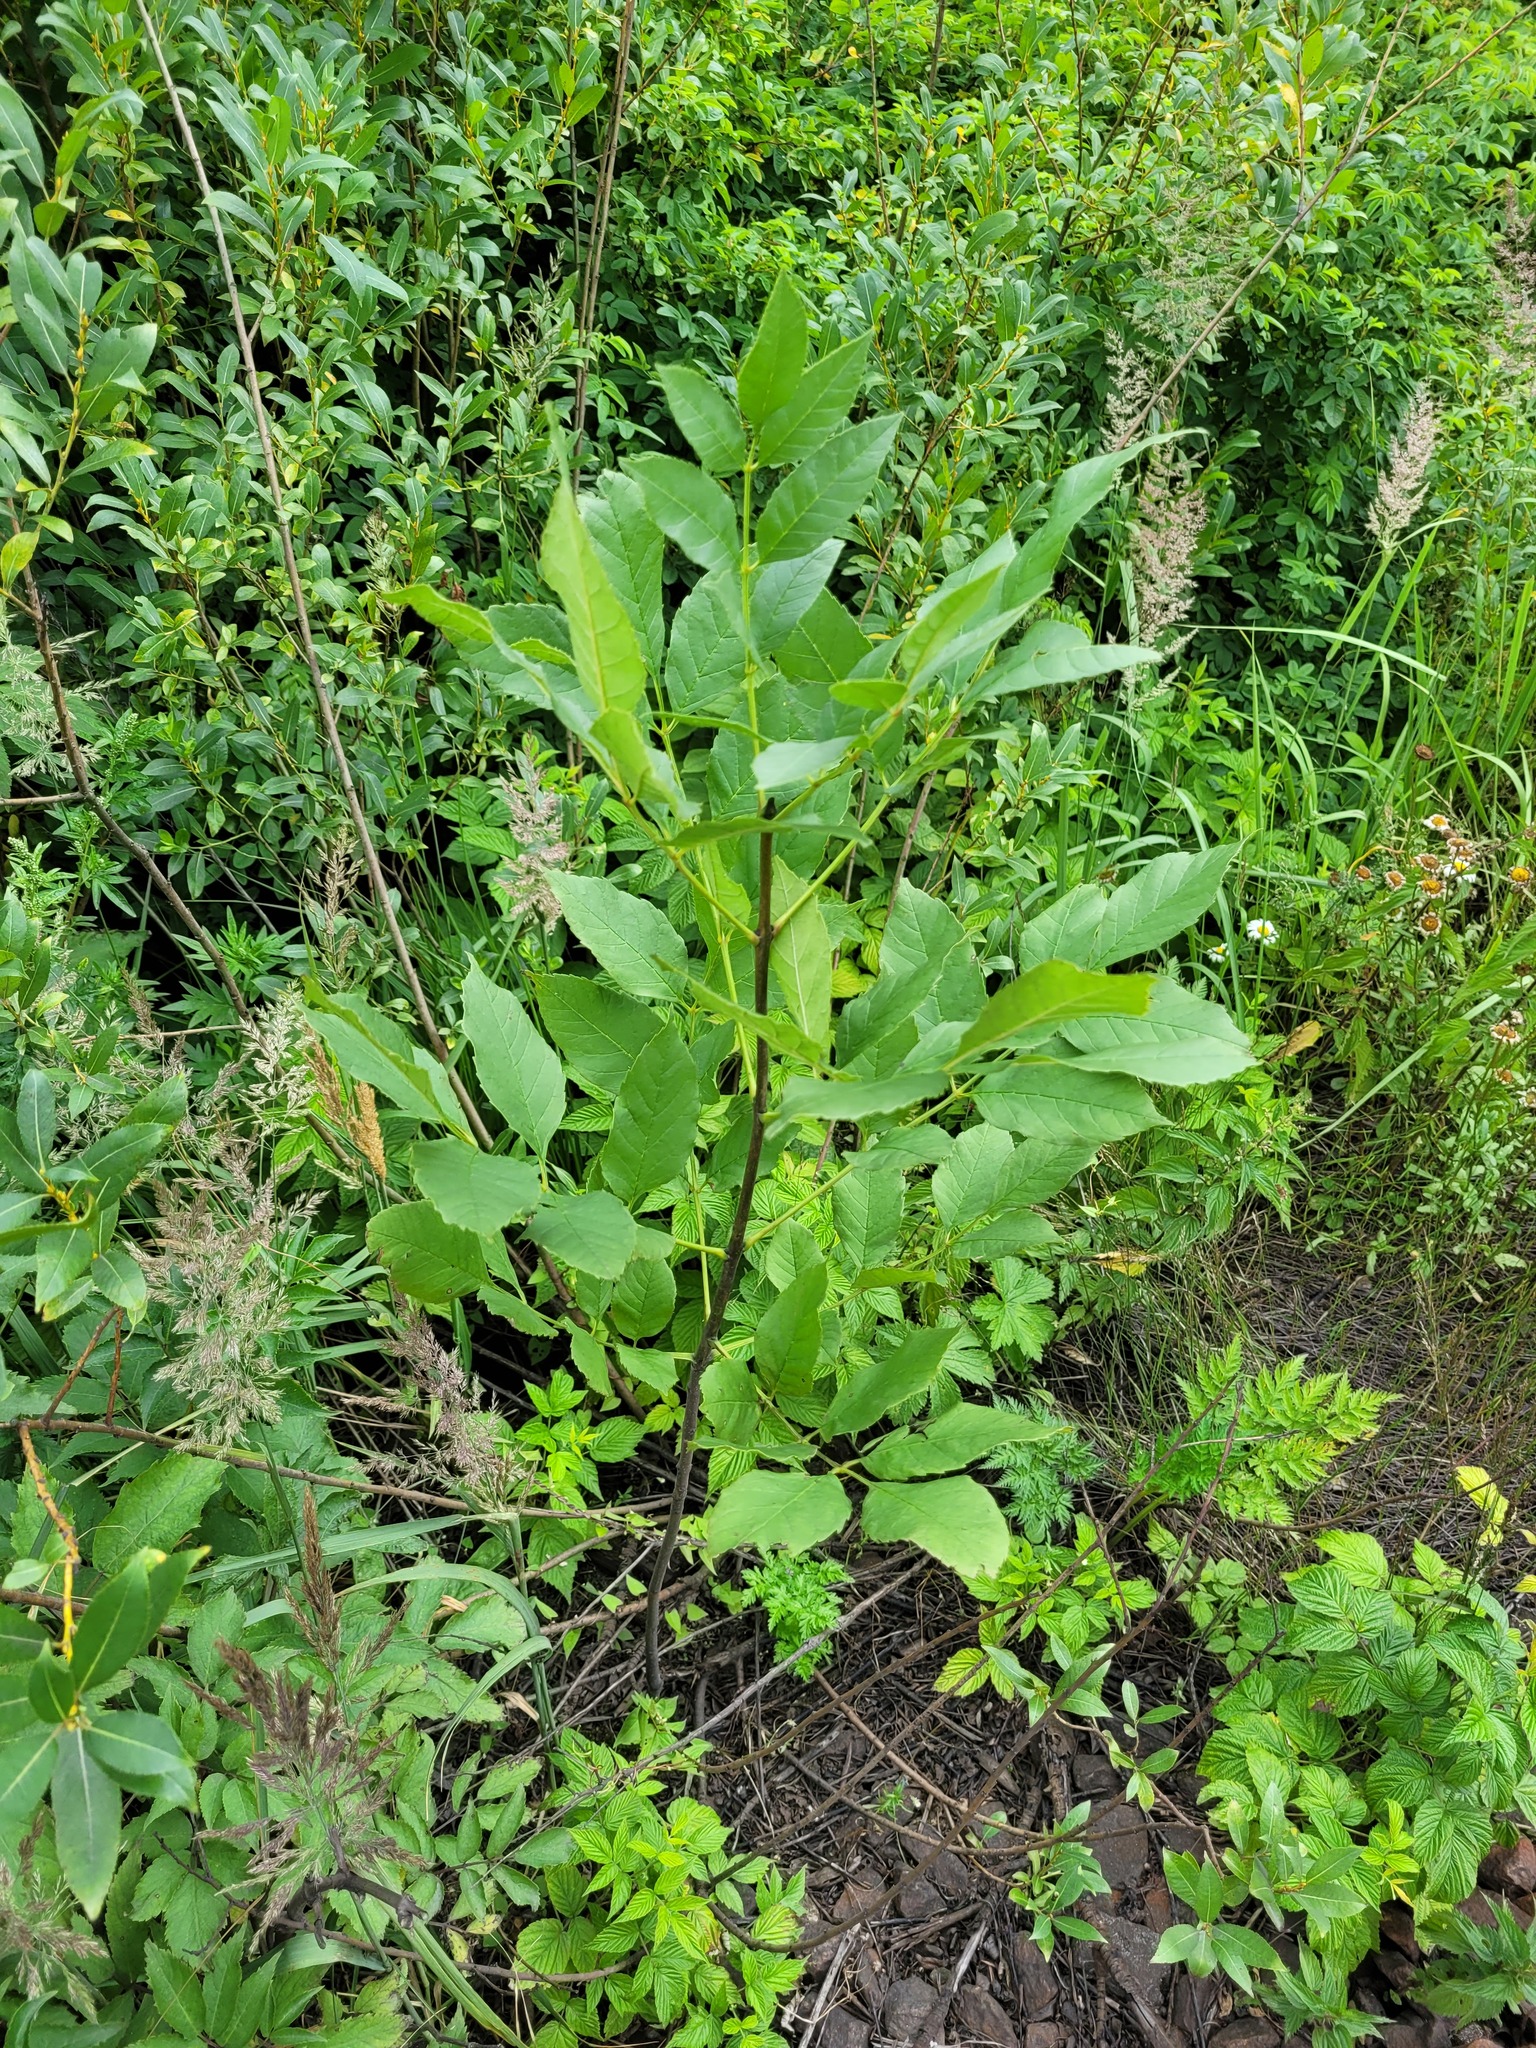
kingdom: Plantae
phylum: Tracheophyta
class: Magnoliopsida
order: Lamiales
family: Oleaceae
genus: Fraxinus
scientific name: Fraxinus pennsylvanica
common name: Green ash
